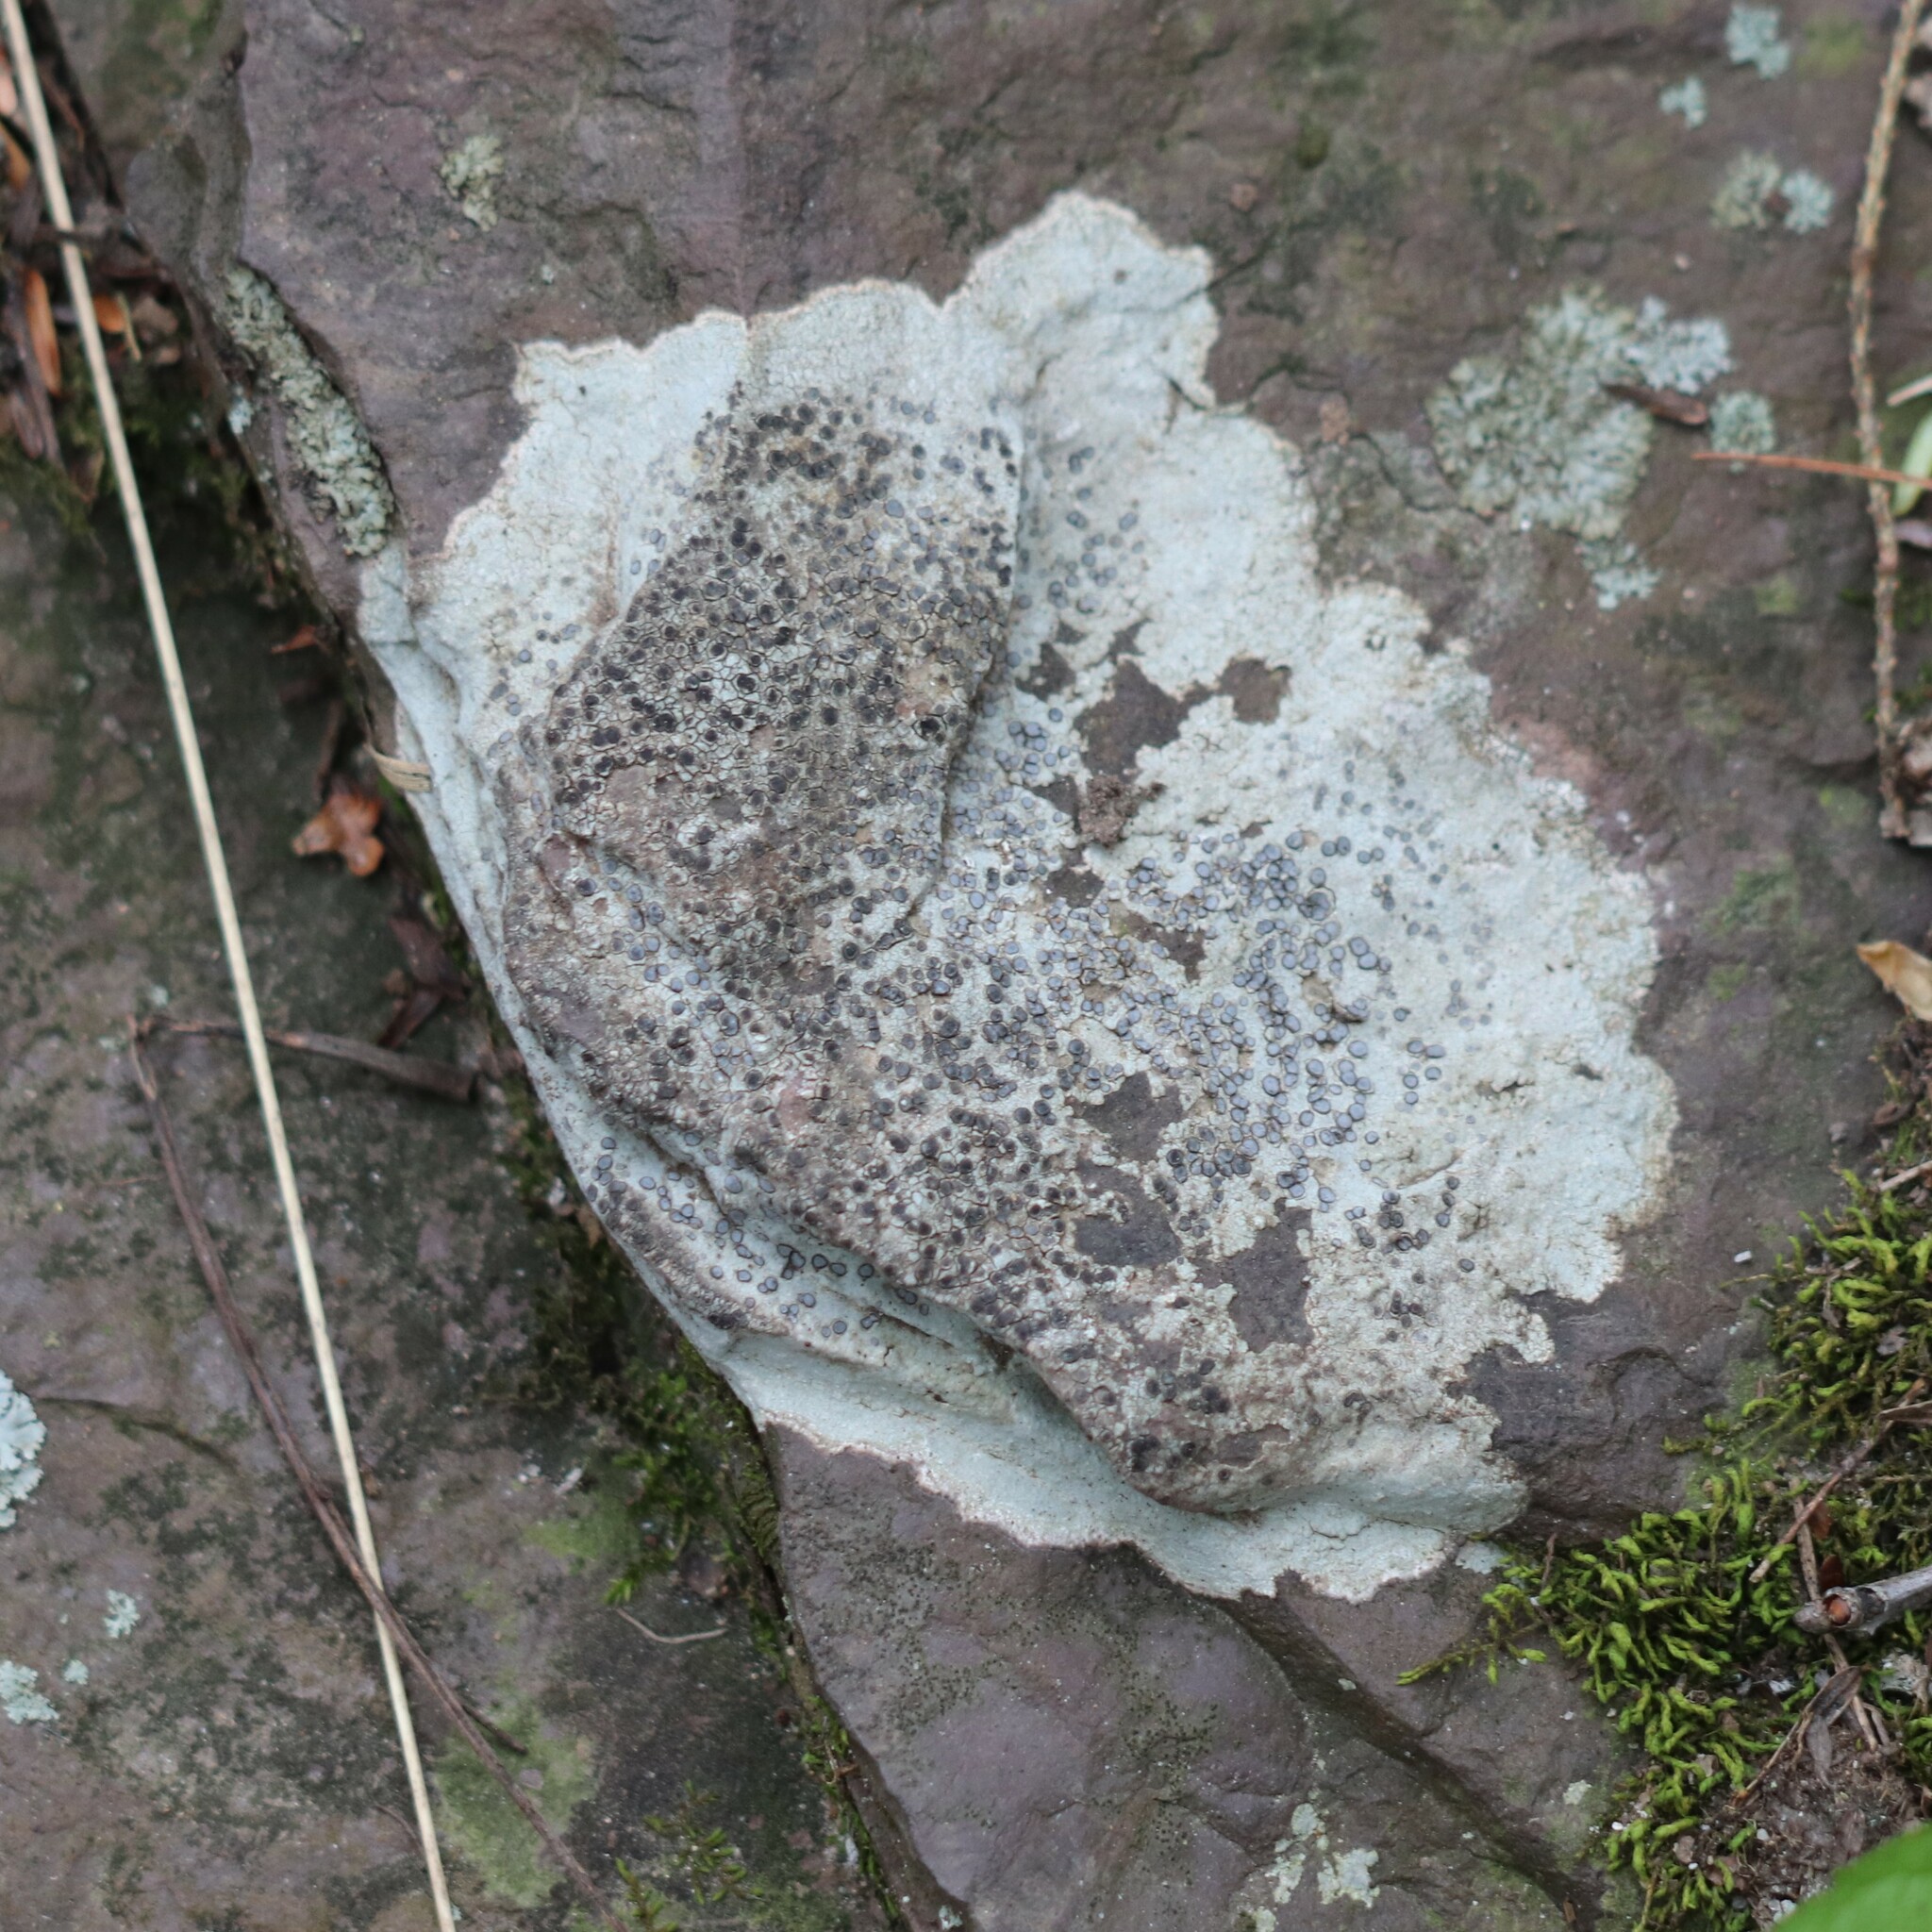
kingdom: Fungi
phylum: Ascomycota
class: Lecanoromycetes
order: Lecideales
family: Lecideaceae
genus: Porpidia
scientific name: Porpidia albocaerulescens
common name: Smokey-eyed boulder lichen
